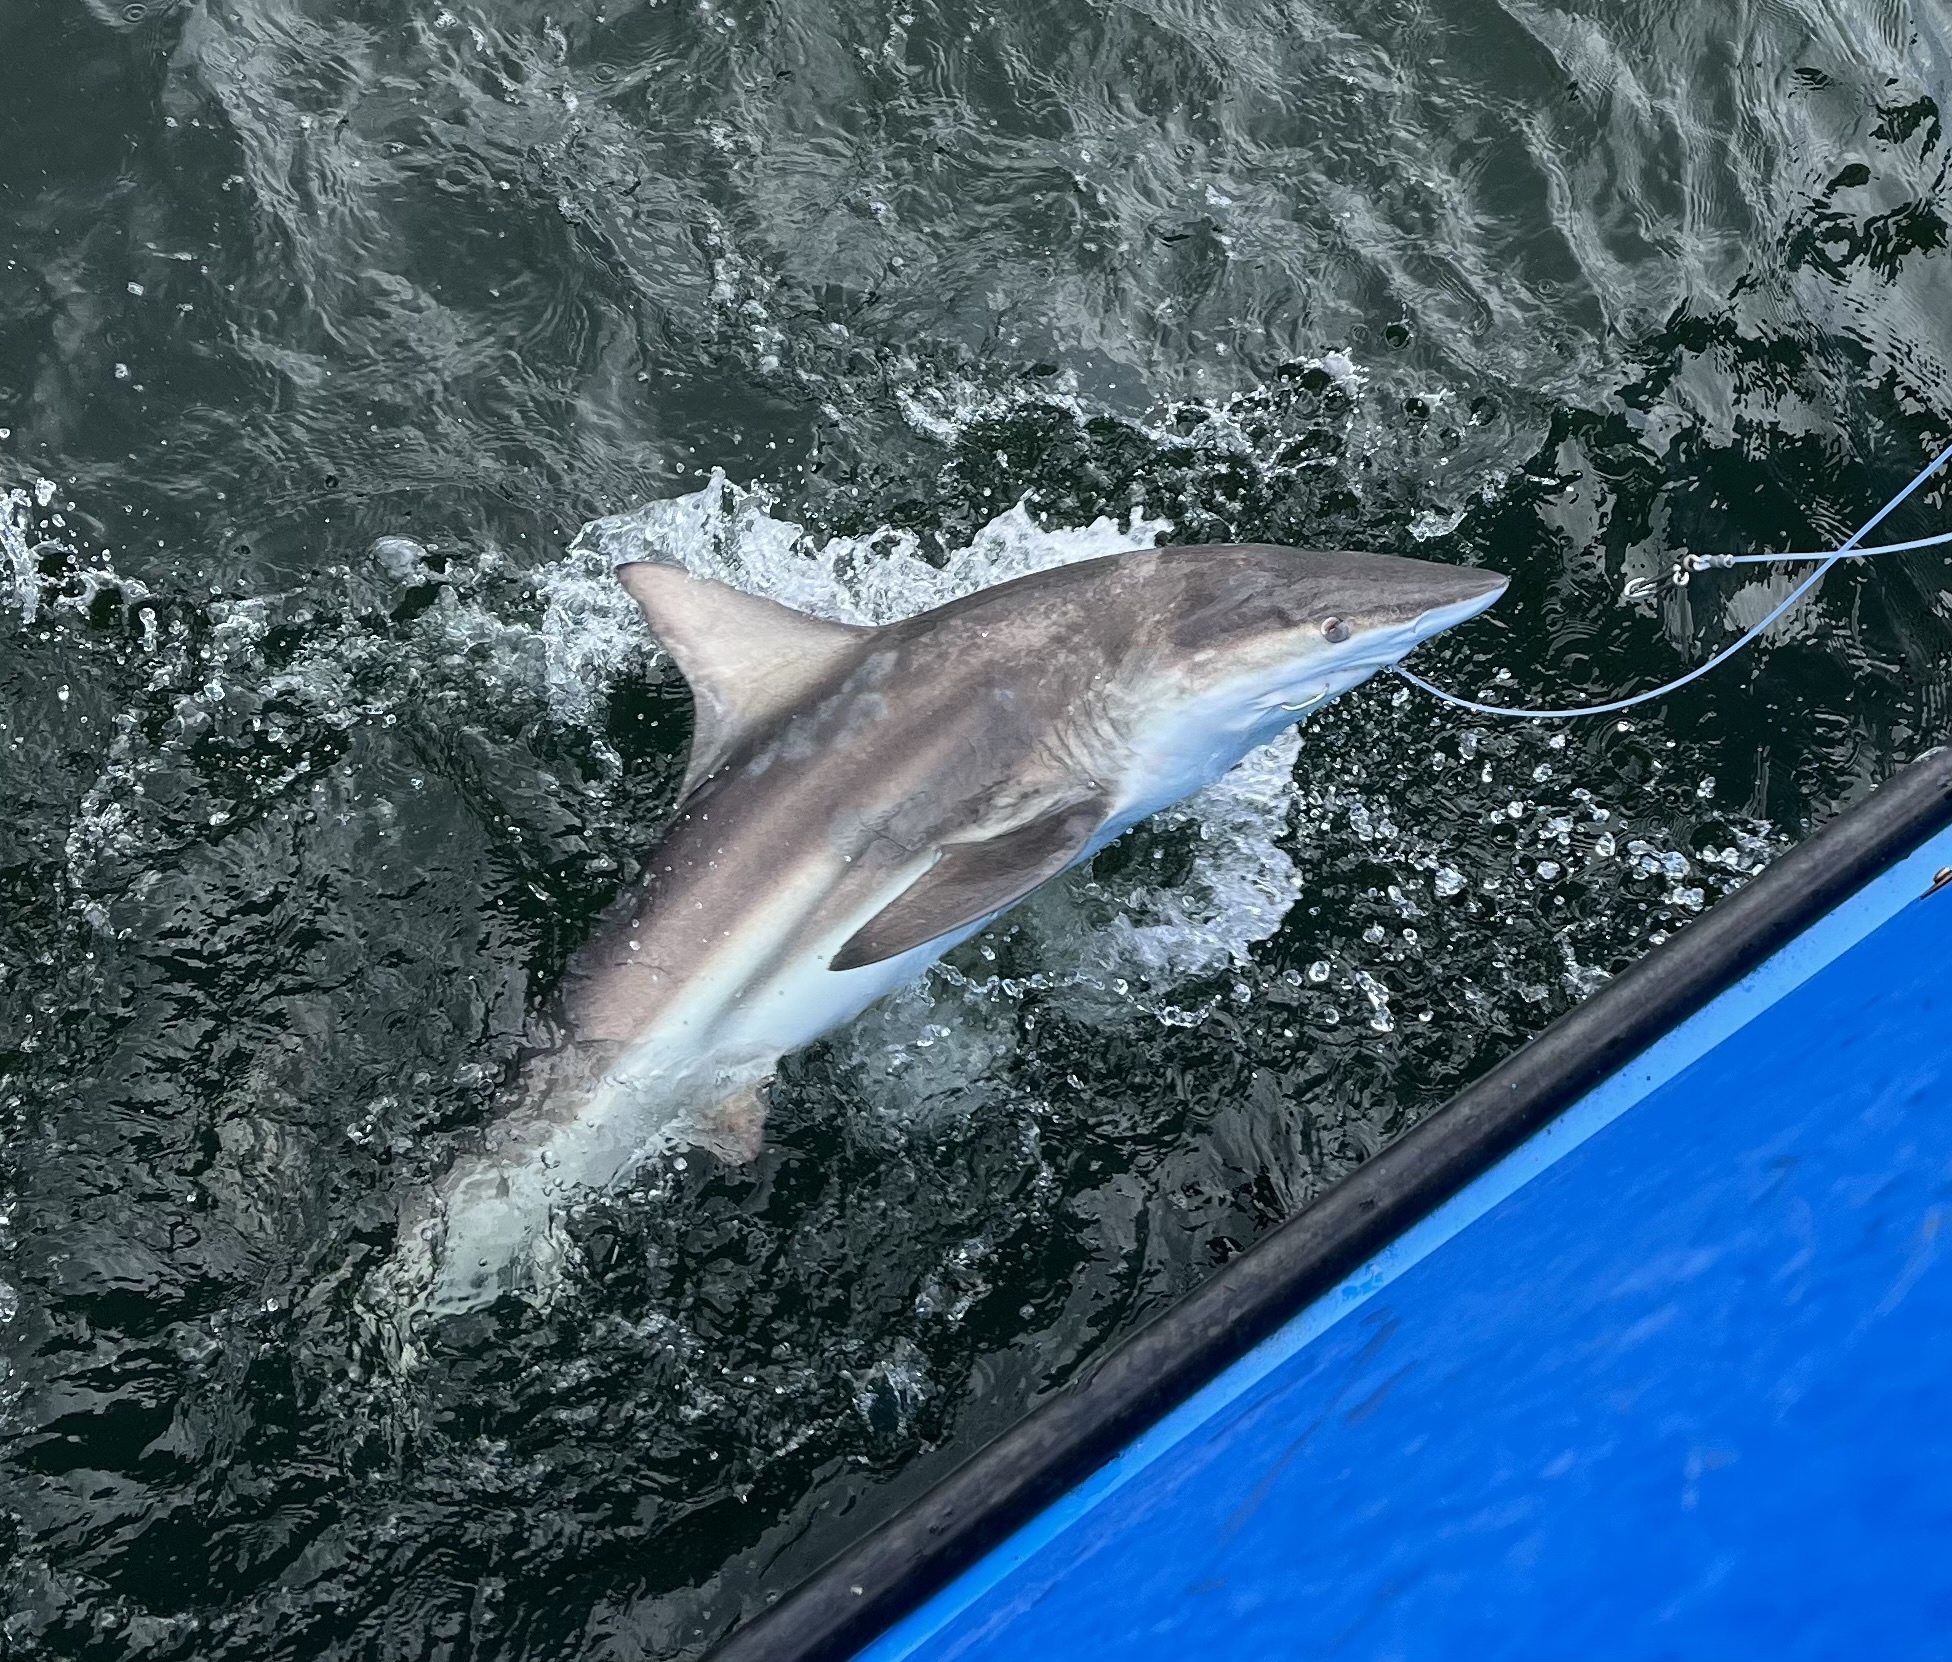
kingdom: Animalia
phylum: Chordata
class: Elasmobranchii
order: Carcharhiniformes
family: Carcharhinidae
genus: Carcharhinus
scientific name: Carcharhinus limbatus
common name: Blacktip shark
